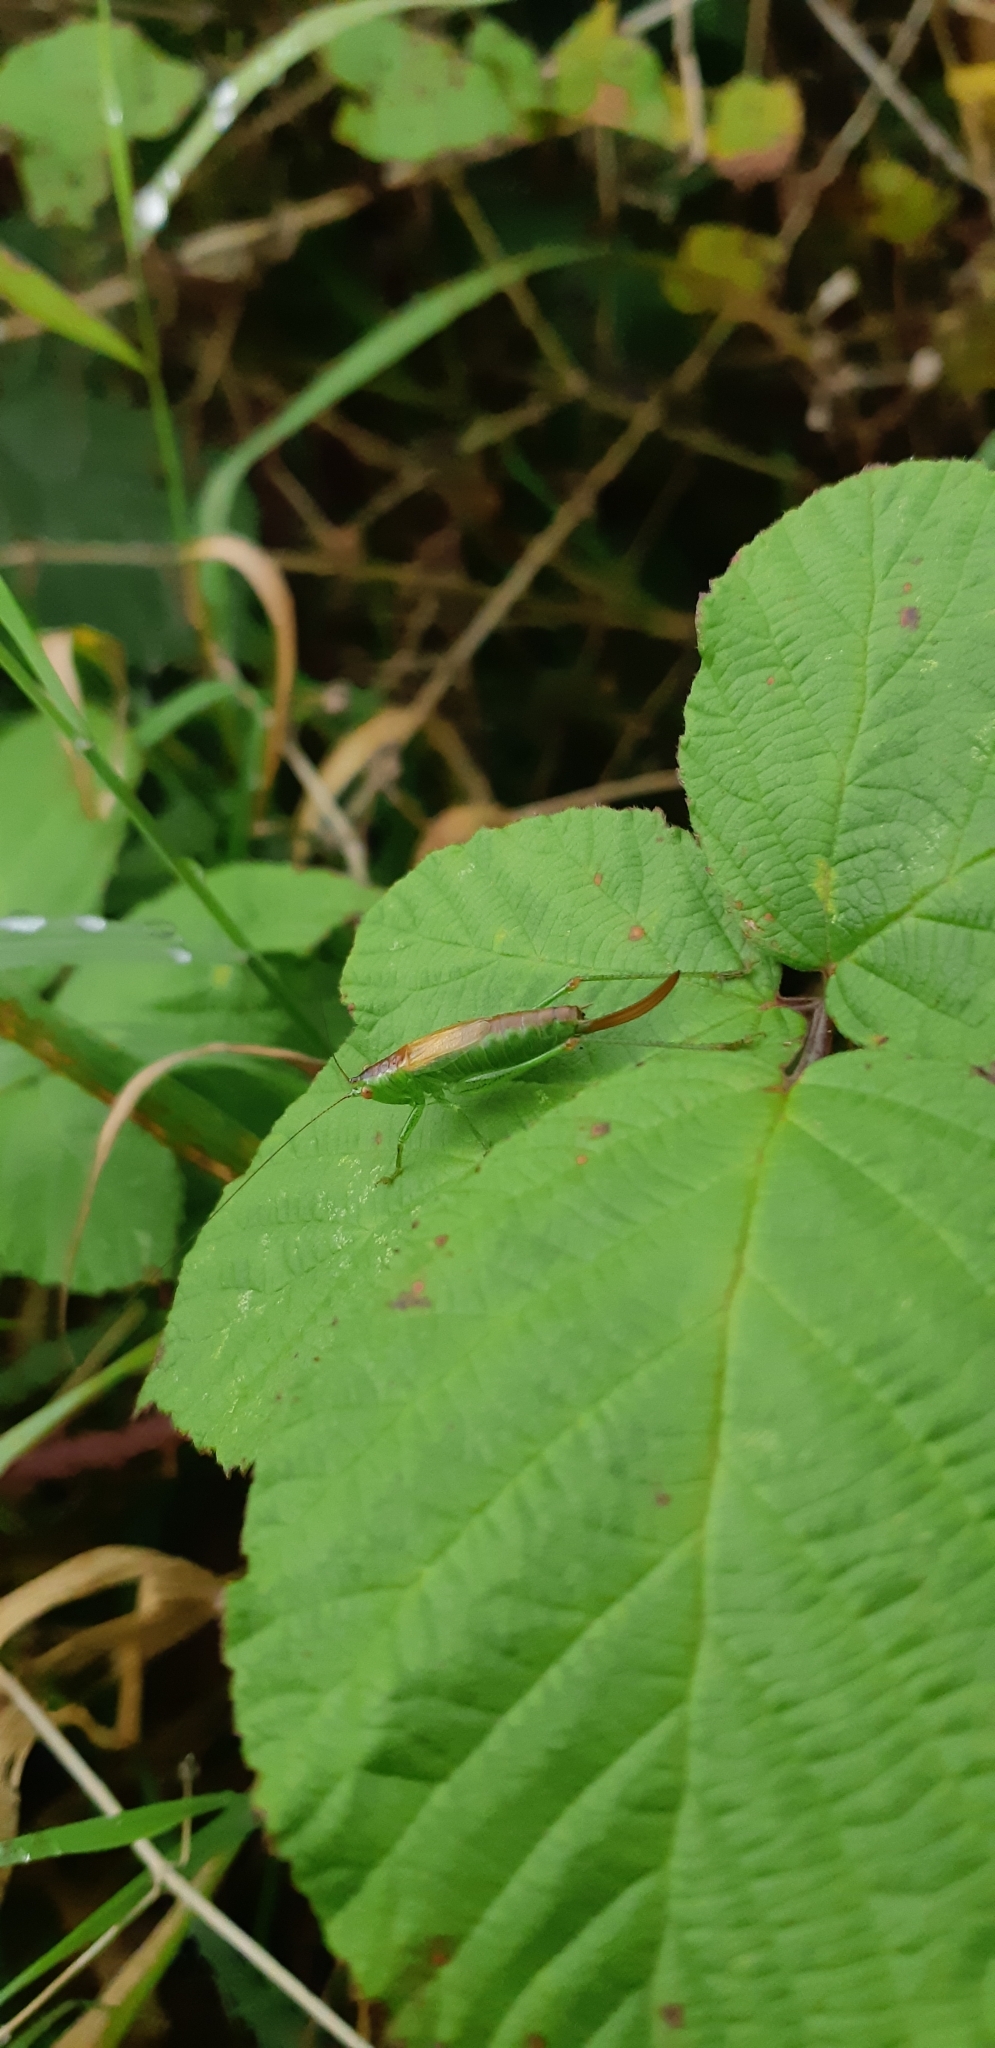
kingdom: Animalia
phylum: Arthropoda
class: Insecta
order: Orthoptera
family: Tettigoniidae
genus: Conocephalus
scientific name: Conocephalus dorsalis
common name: Short-winged conehead
